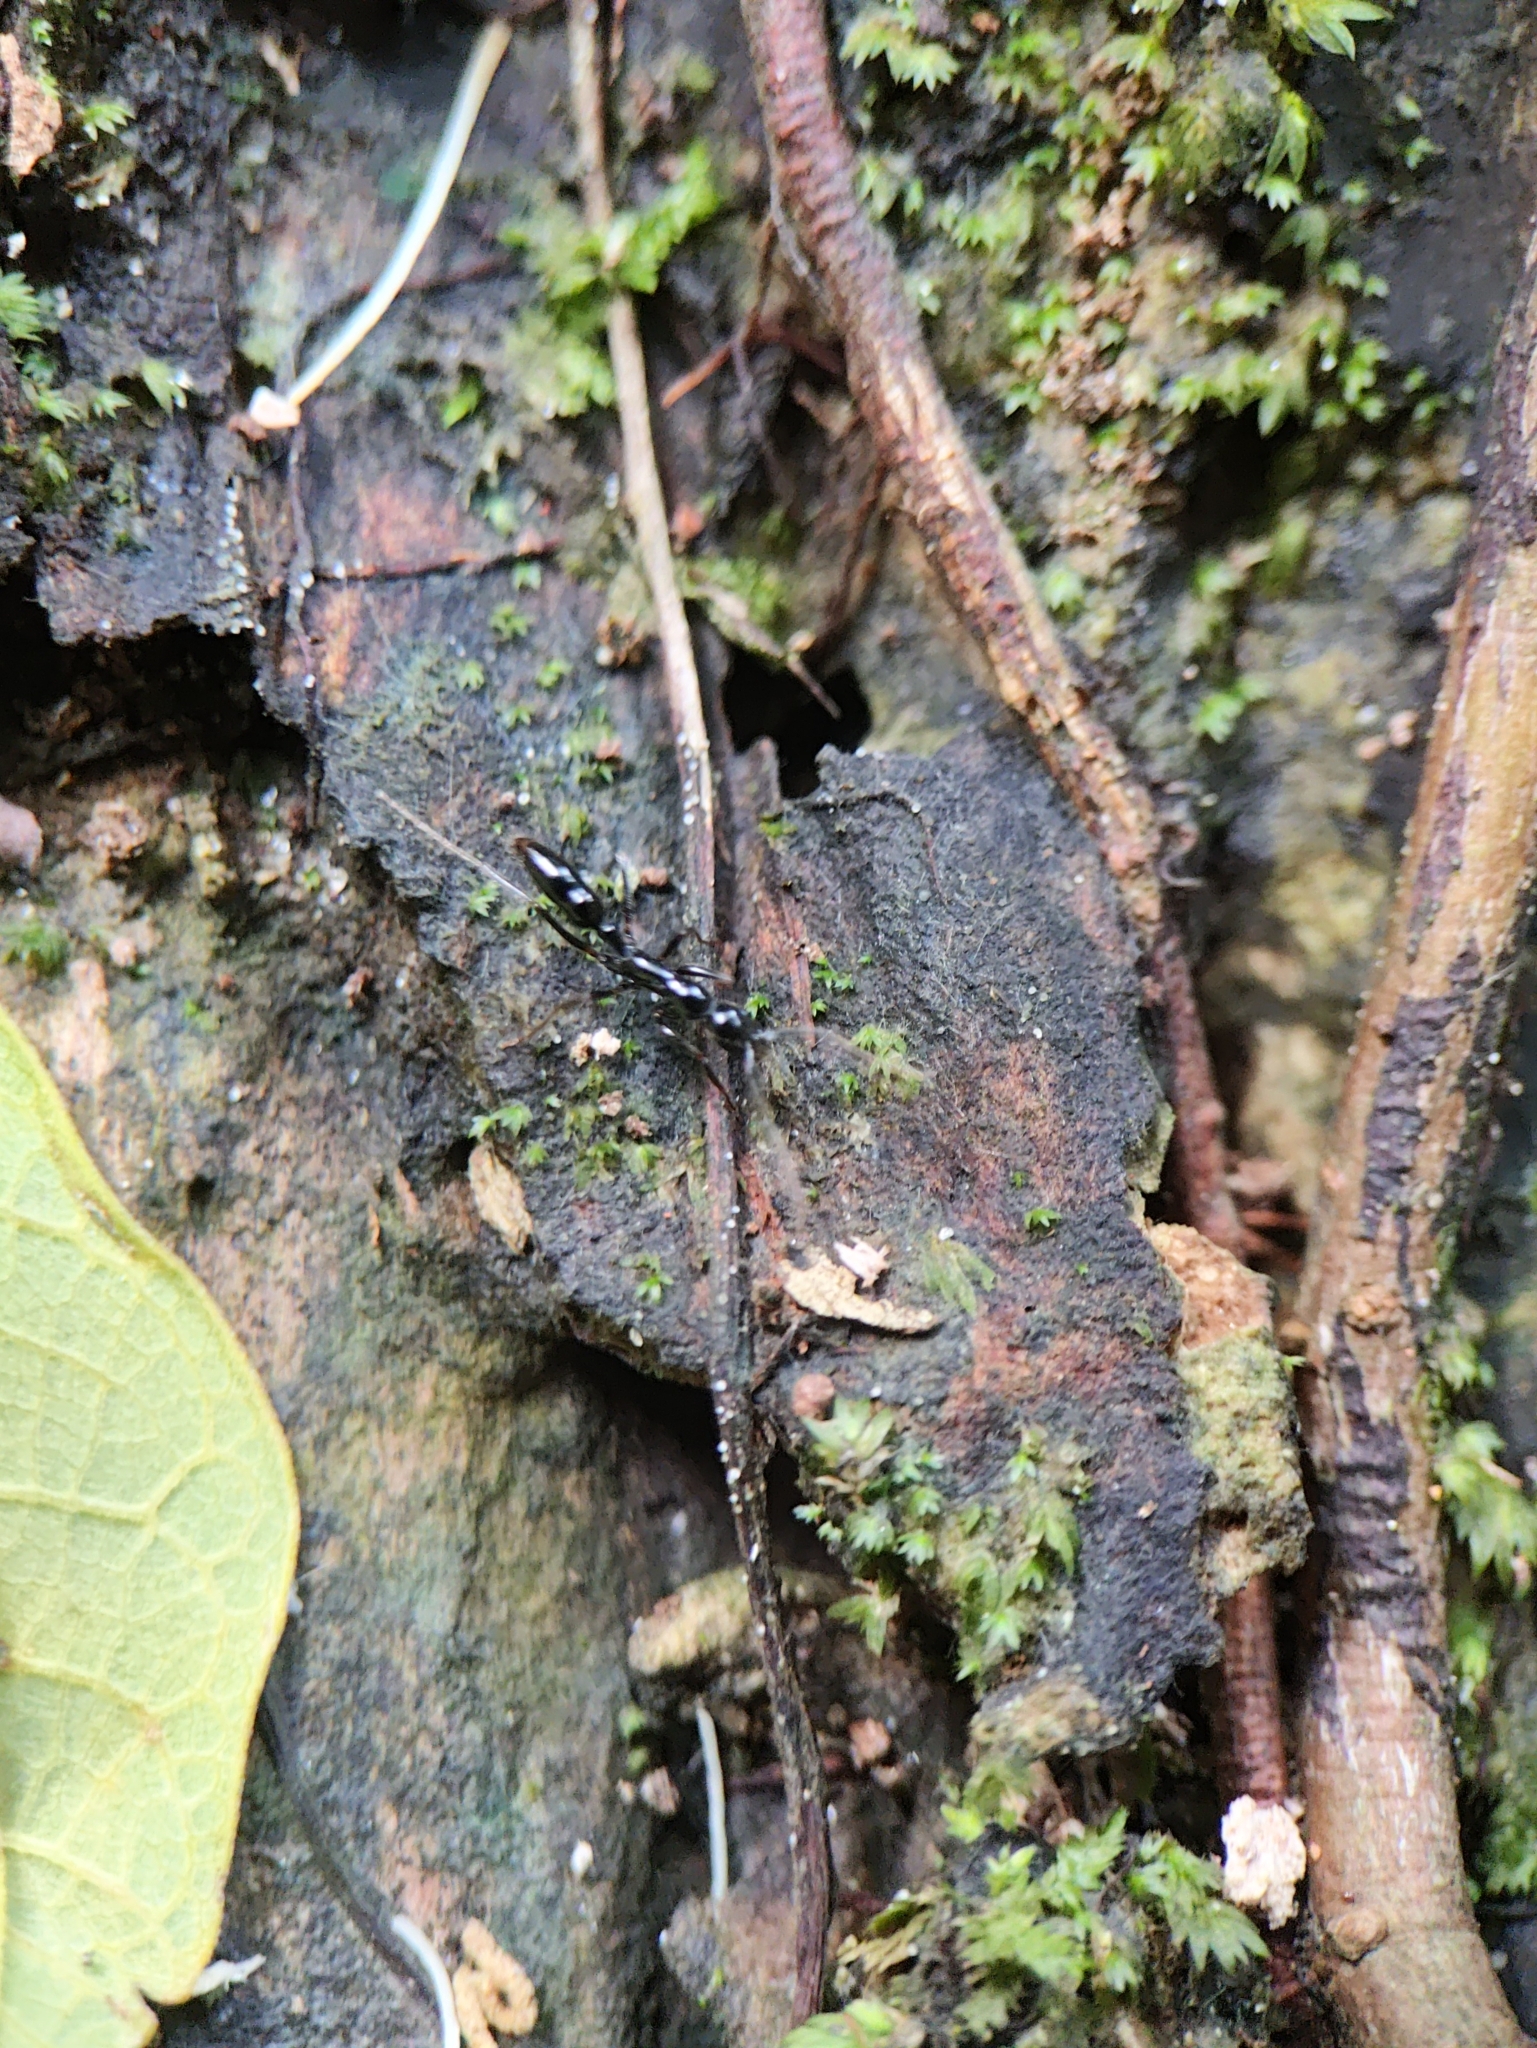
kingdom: Animalia
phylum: Arthropoda
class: Insecta
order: Hymenoptera
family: Formicidae
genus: Leptogenys
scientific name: Leptogenys peuqueti
